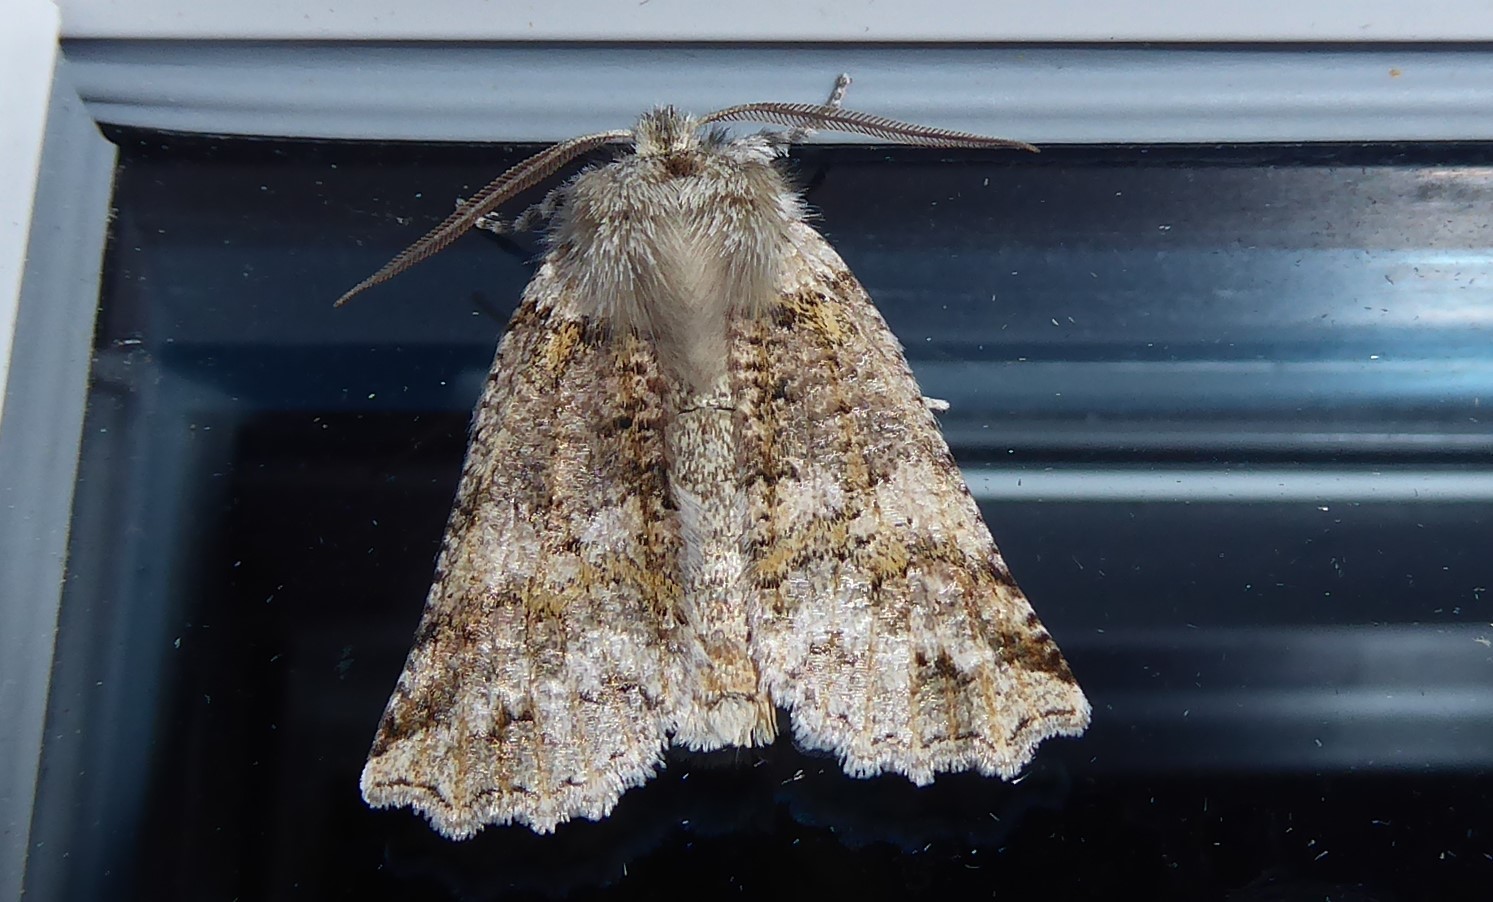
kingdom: Animalia
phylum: Arthropoda
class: Insecta
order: Lepidoptera
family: Geometridae
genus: Declana
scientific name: Declana floccosa
